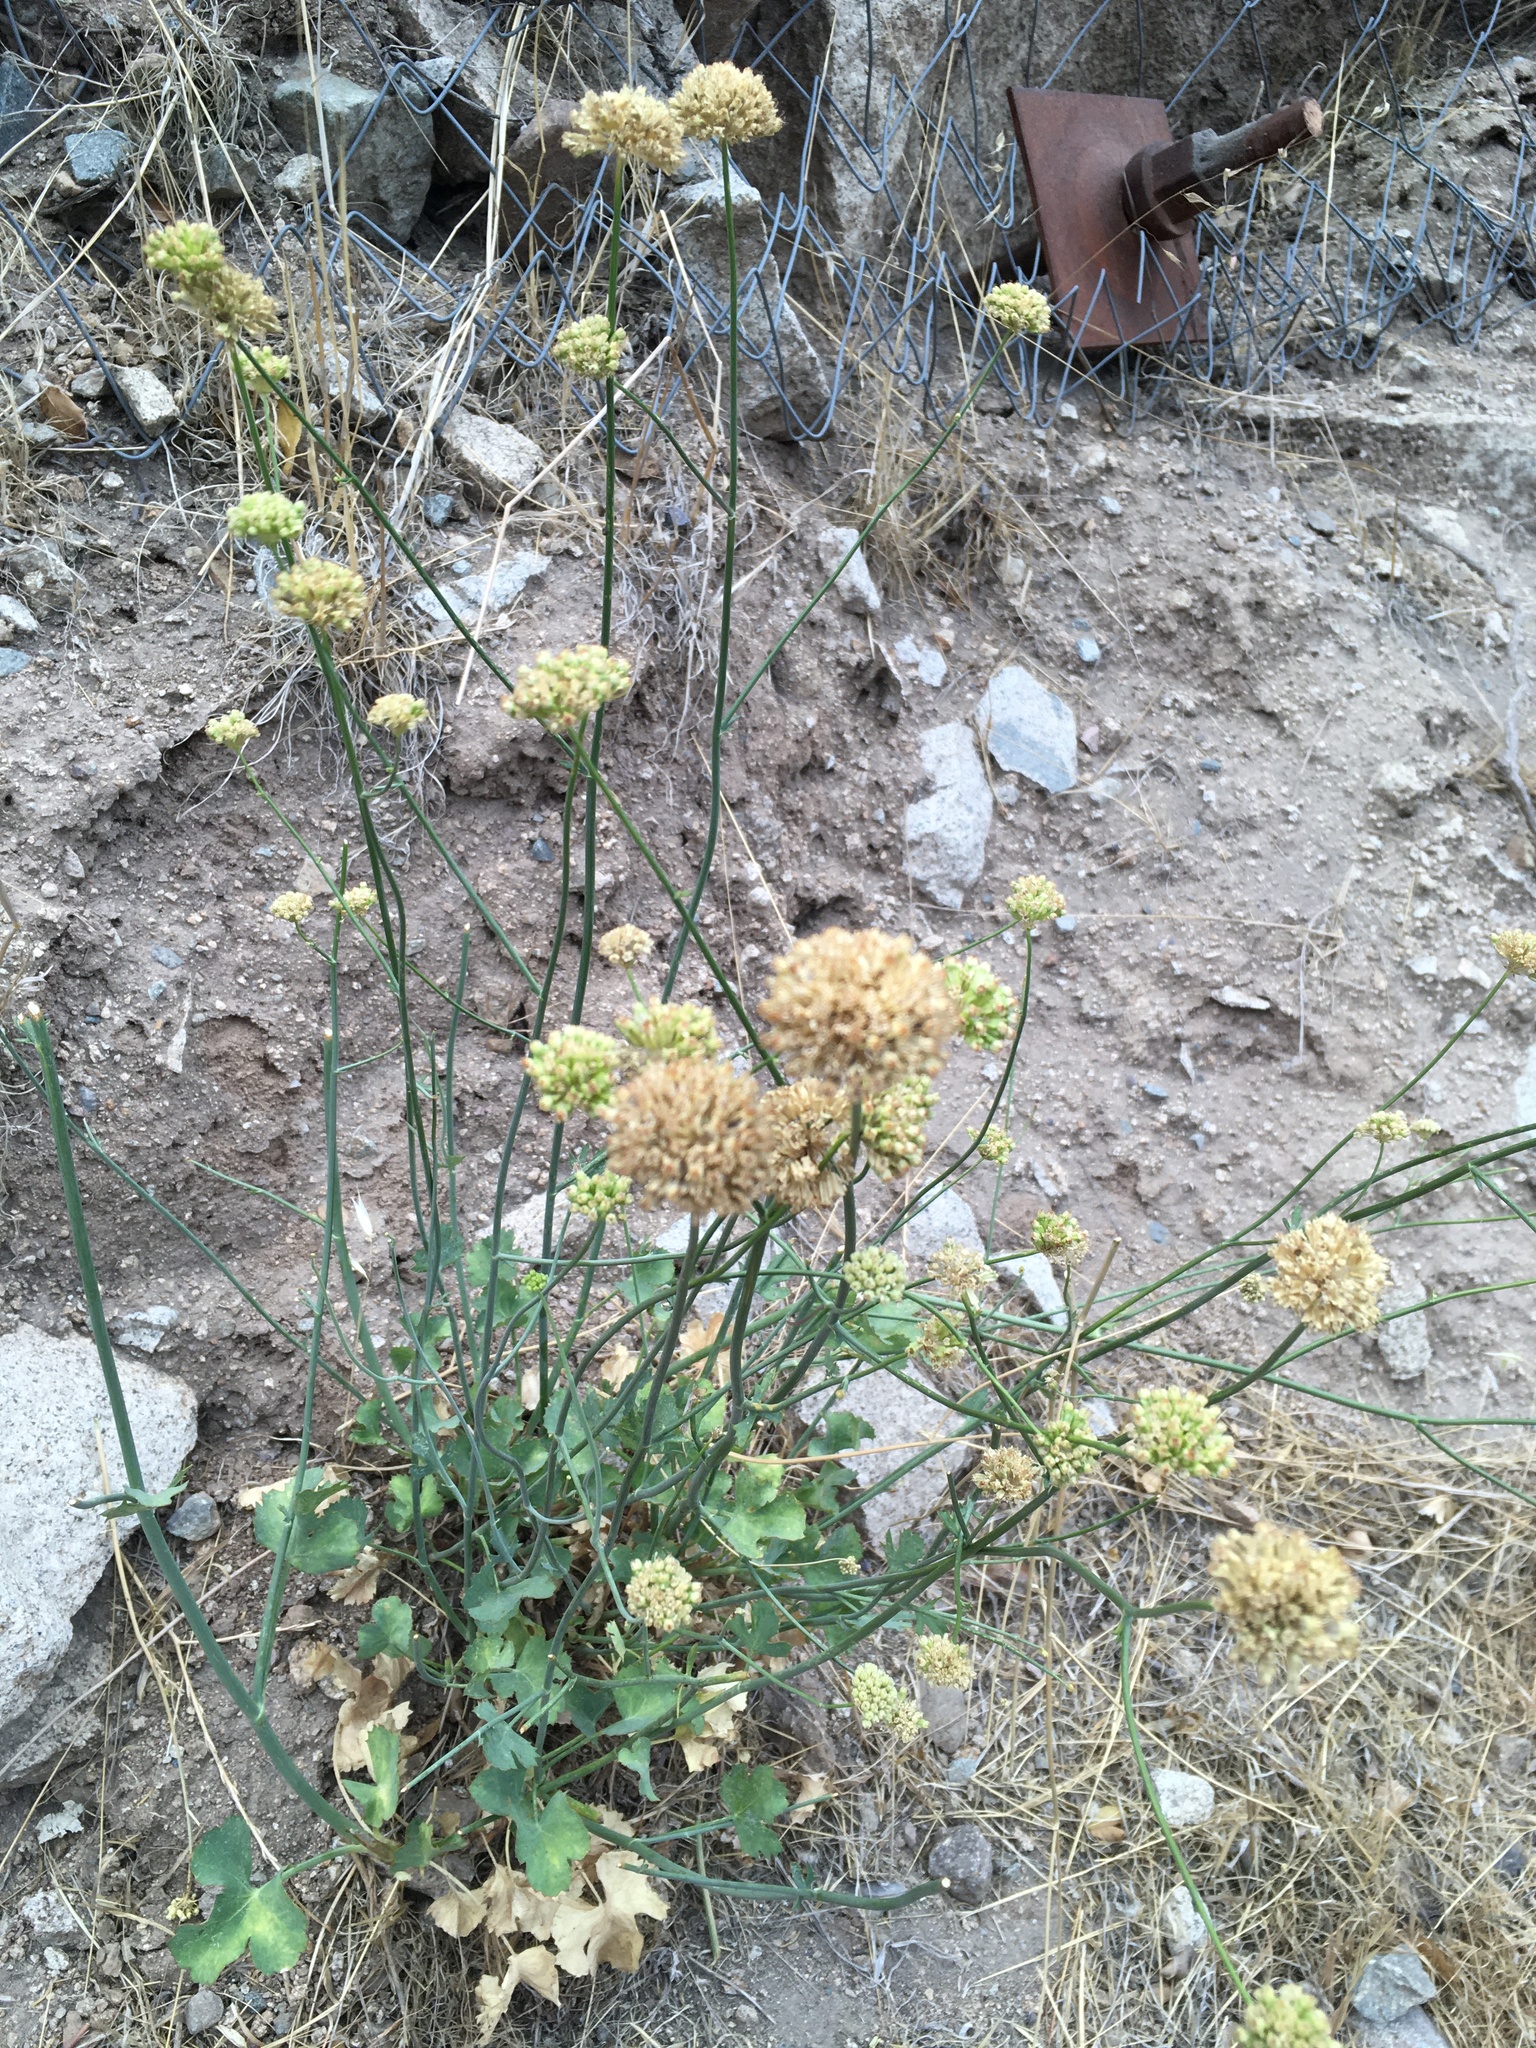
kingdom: Plantae
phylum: Tracheophyta
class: Magnoliopsida
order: Apiales
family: Apiaceae
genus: Asteriscium
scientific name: Asteriscium chilense
